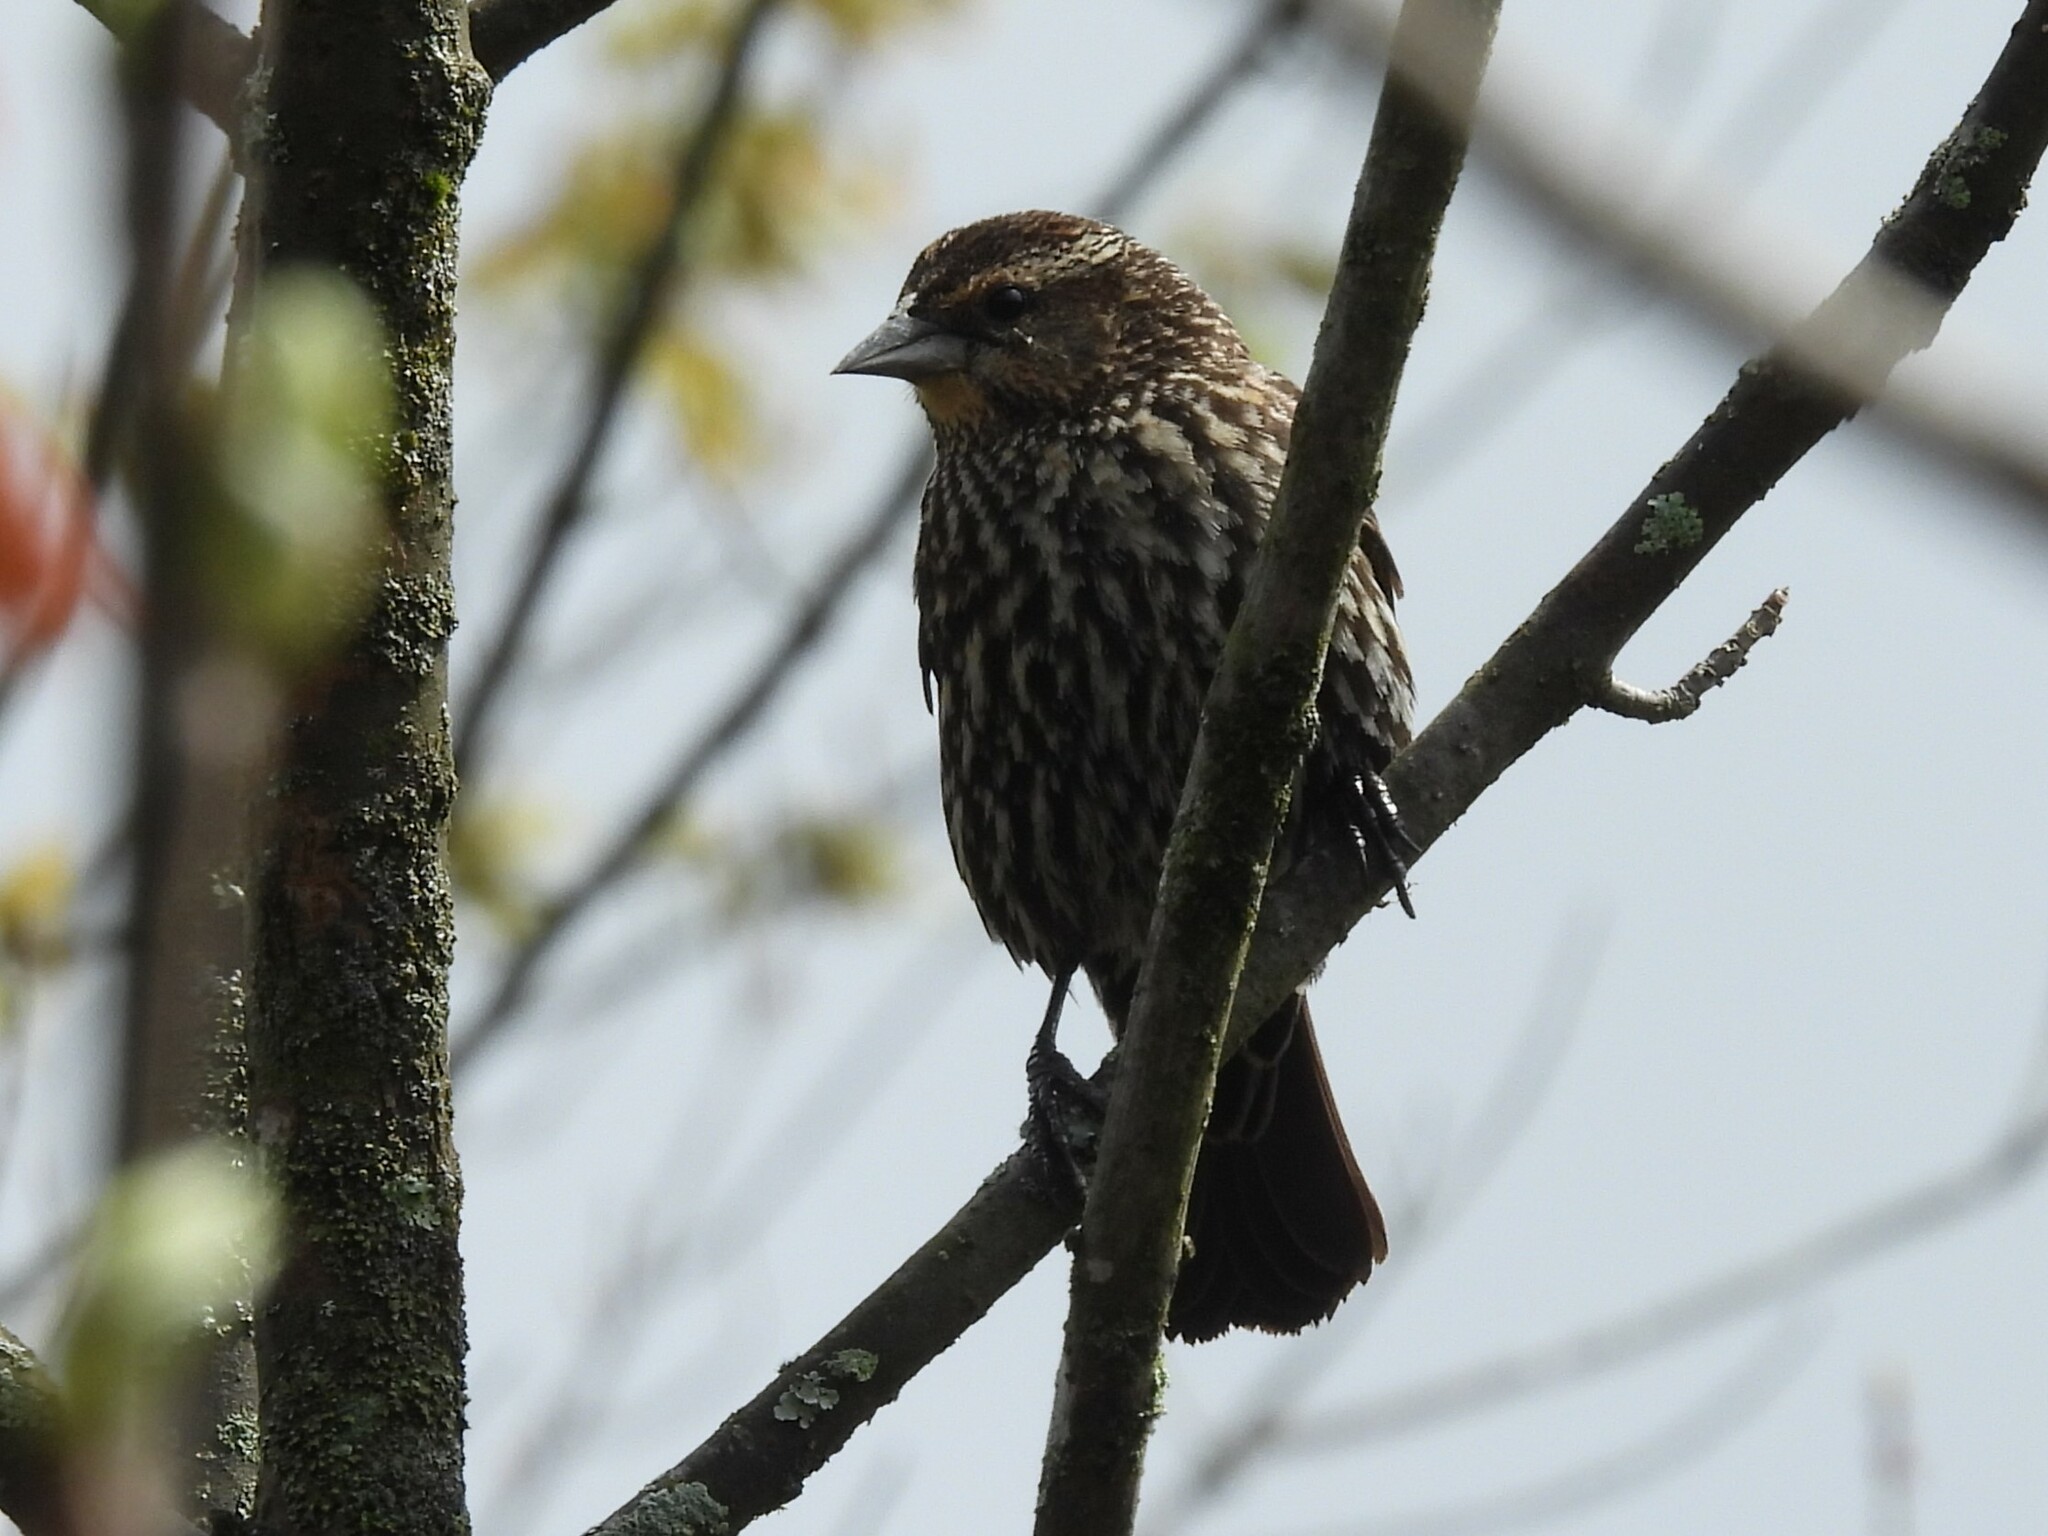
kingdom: Animalia
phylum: Chordata
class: Aves
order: Passeriformes
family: Icteridae
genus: Agelaius
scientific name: Agelaius phoeniceus
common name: Red-winged blackbird
